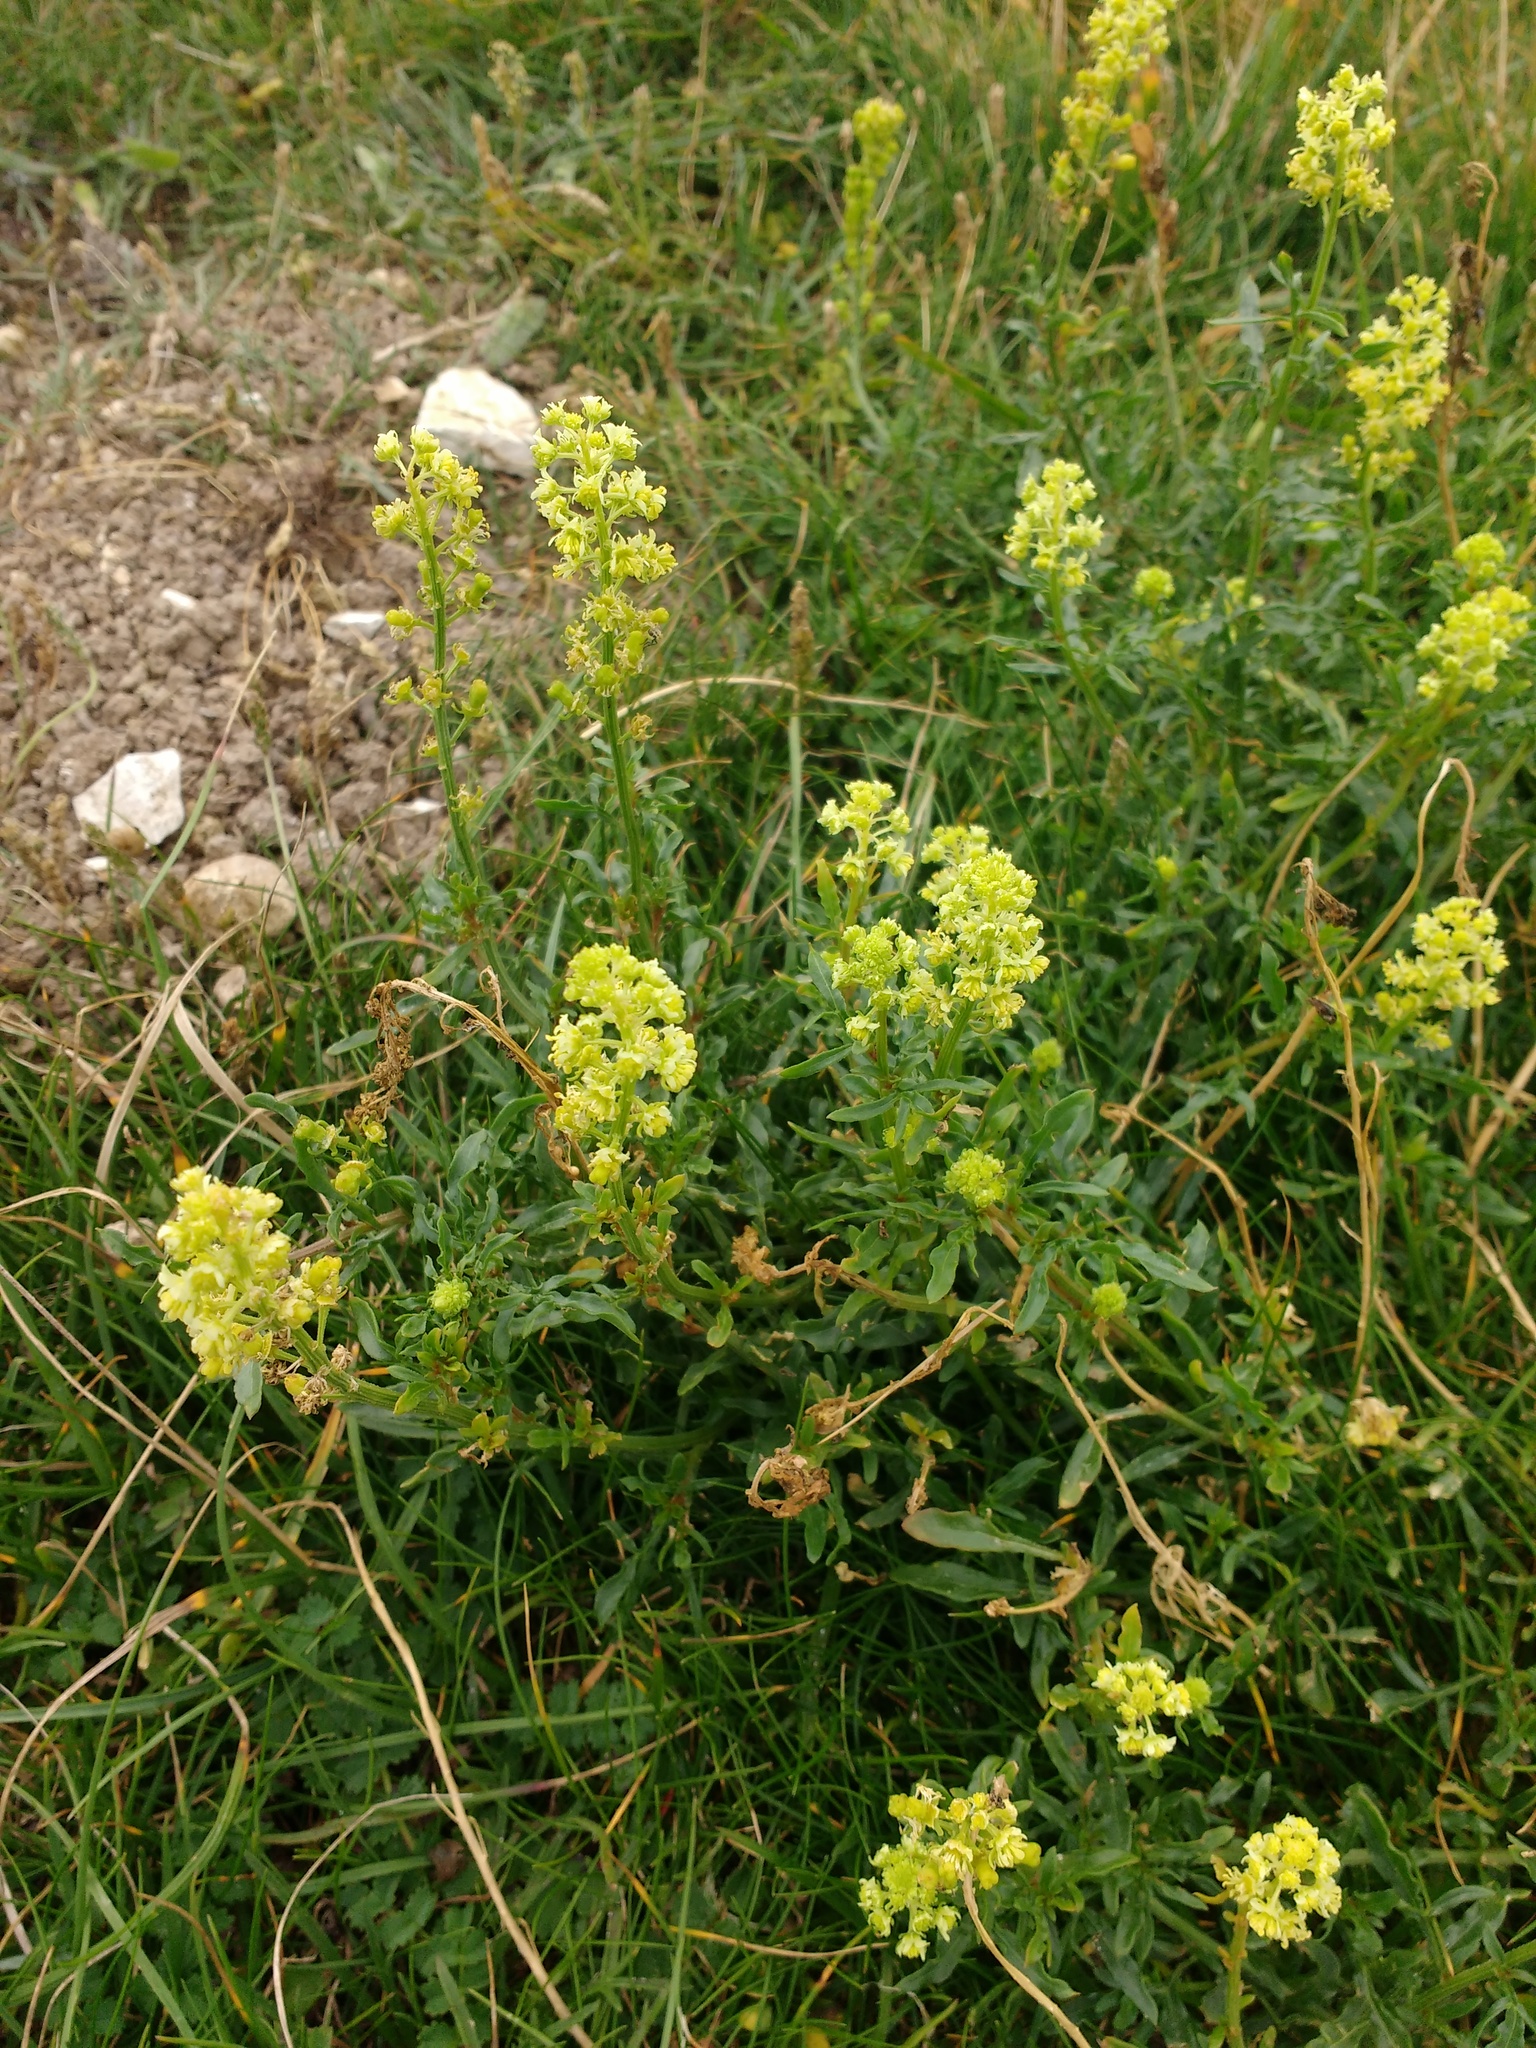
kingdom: Plantae
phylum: Tracheophyta
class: Magnoliopsida
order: Brassicales
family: Resedaceae
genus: Reseda
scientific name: Reseda lutea
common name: Wild mignonette
